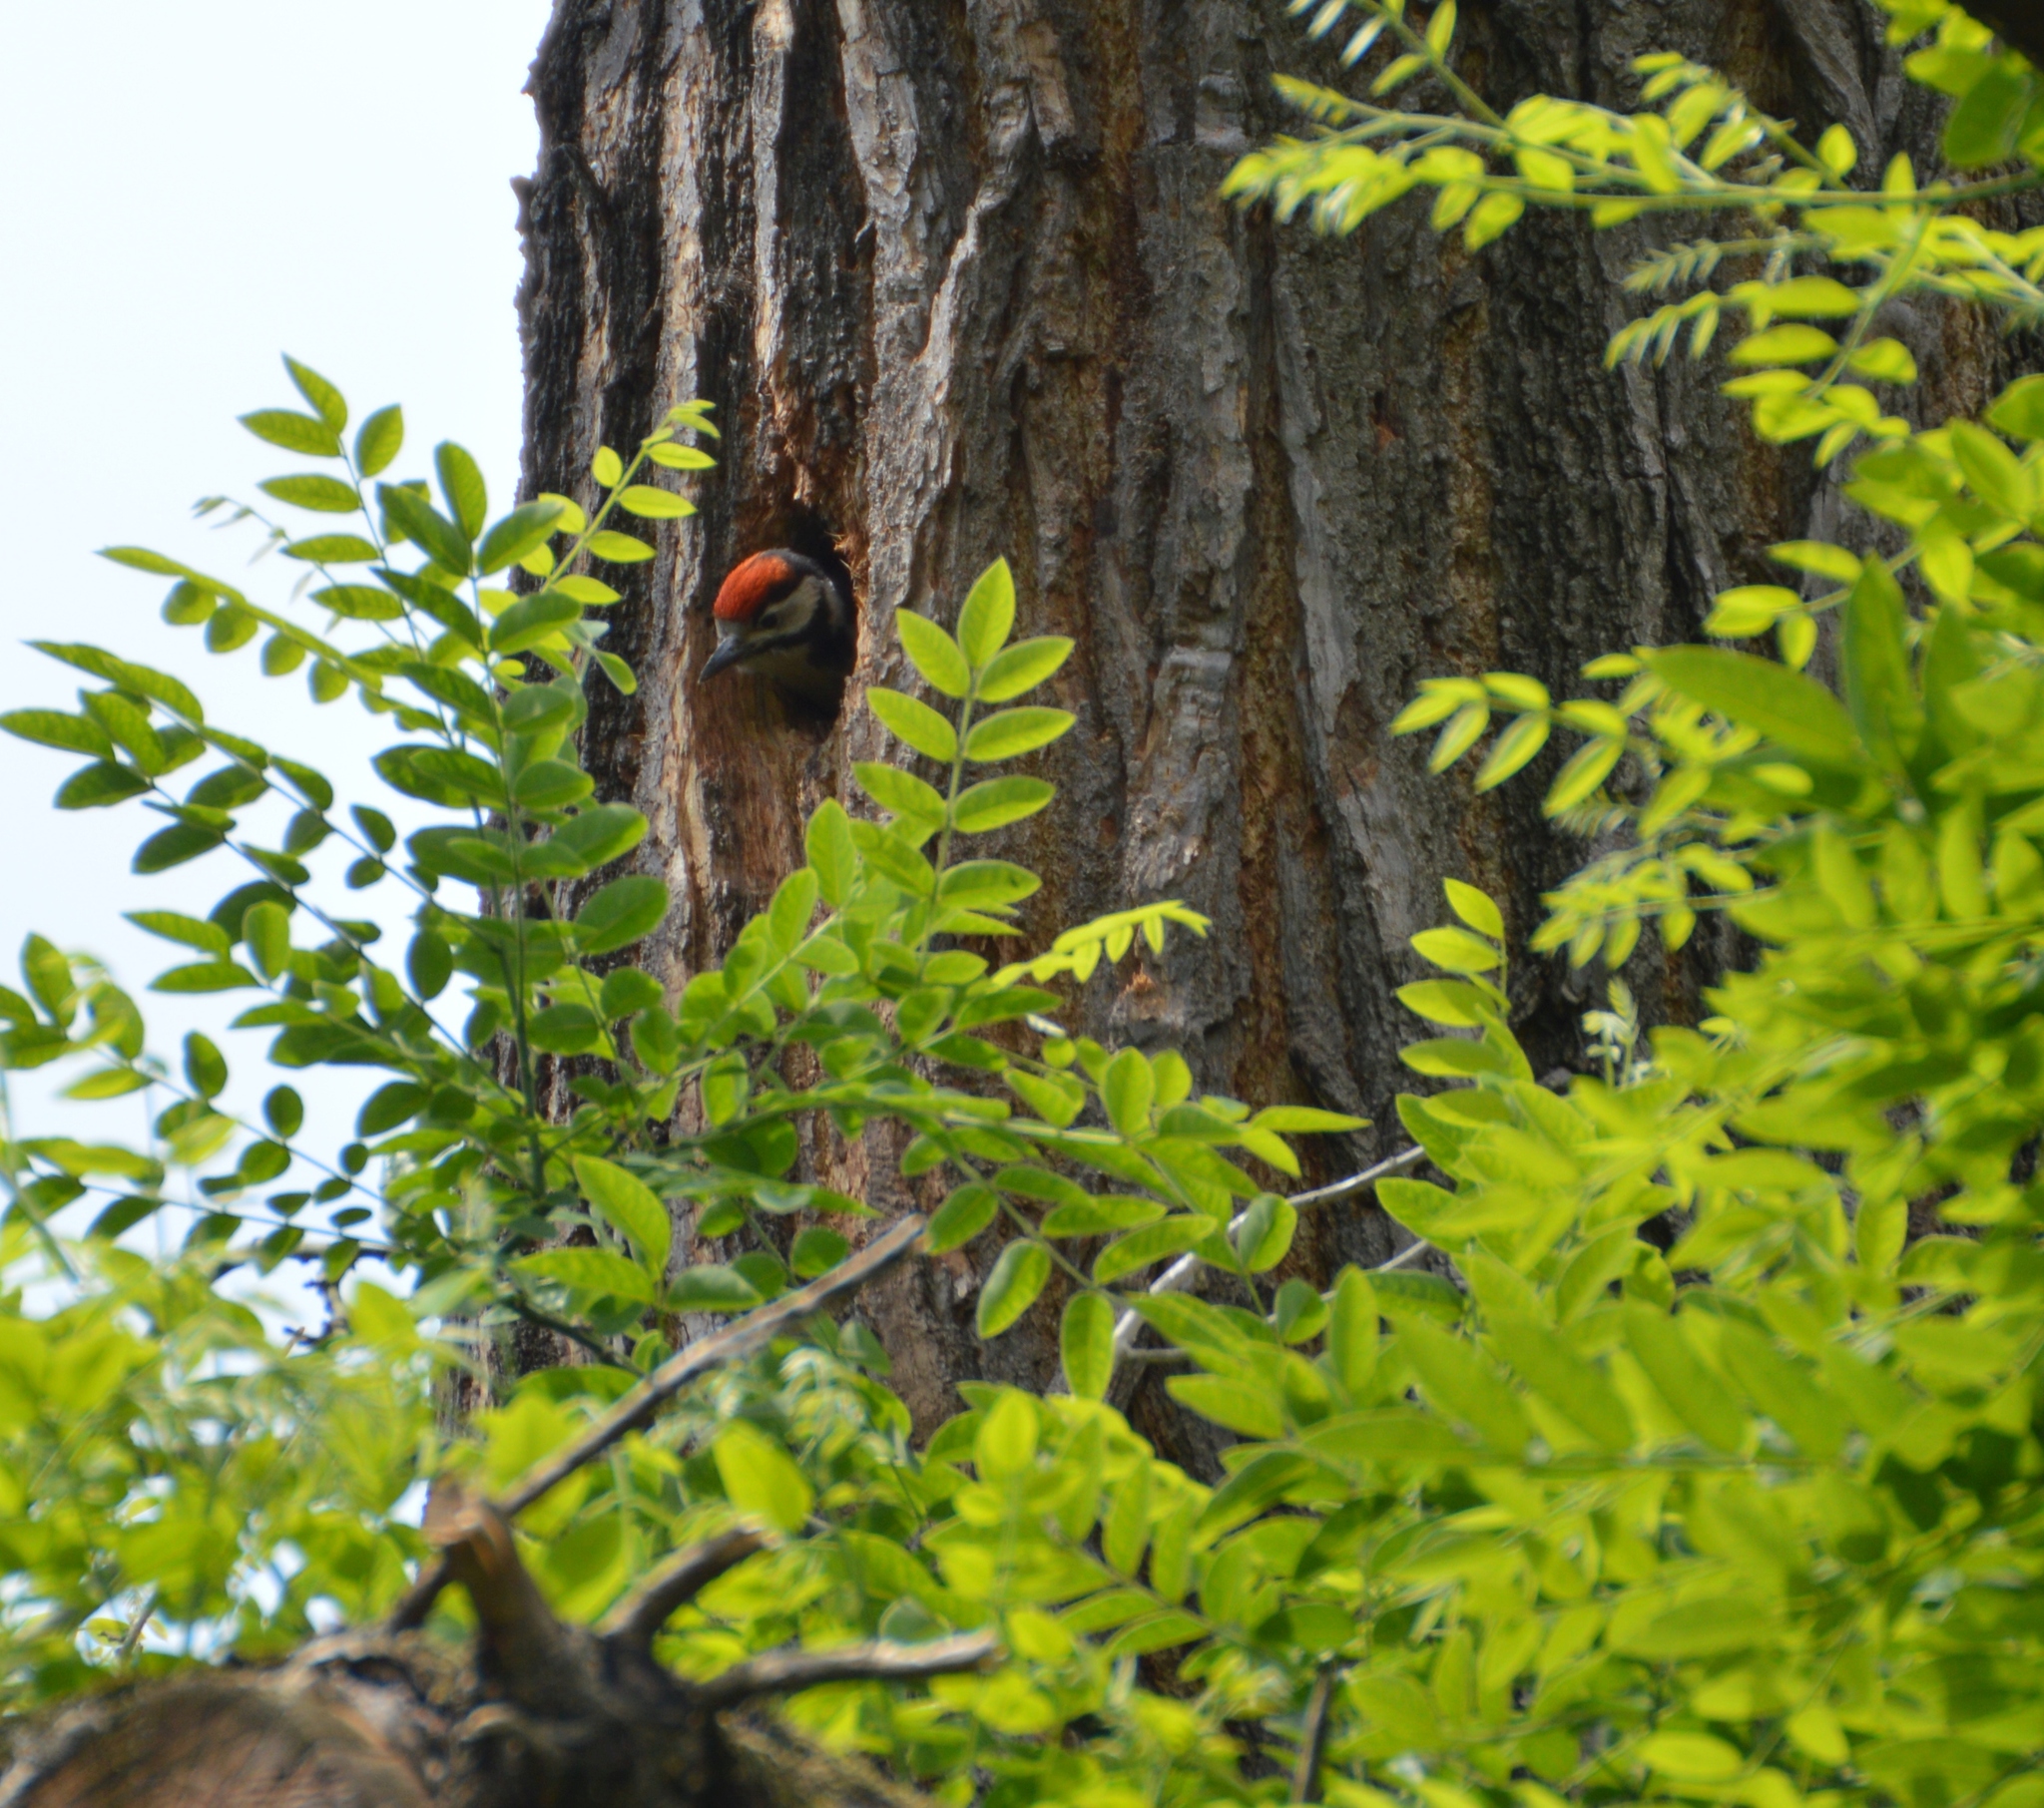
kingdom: Animalia
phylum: Chordata
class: Aves
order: Piciformes
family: Picidae
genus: Dendrocopos
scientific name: Dendrocopos major
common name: Great spotted woodpecker
